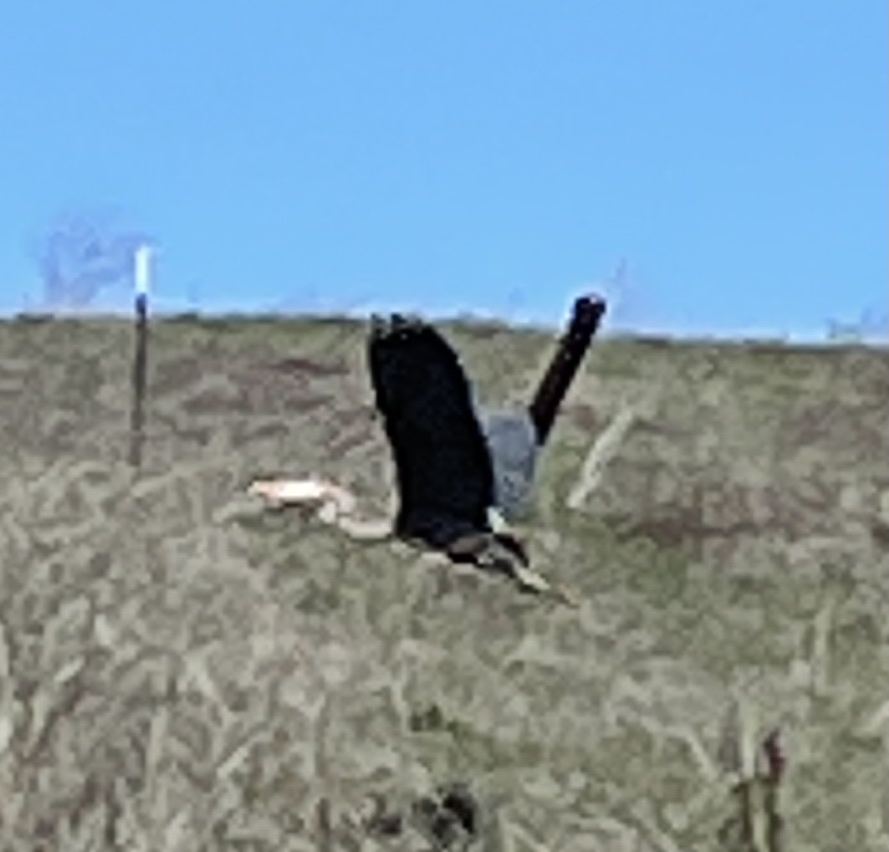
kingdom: Animalia
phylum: Chordata
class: Aves
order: Pelecaniformes
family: Ardeidae
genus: Ardea
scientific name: Ardea herodias
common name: Great blue heron
